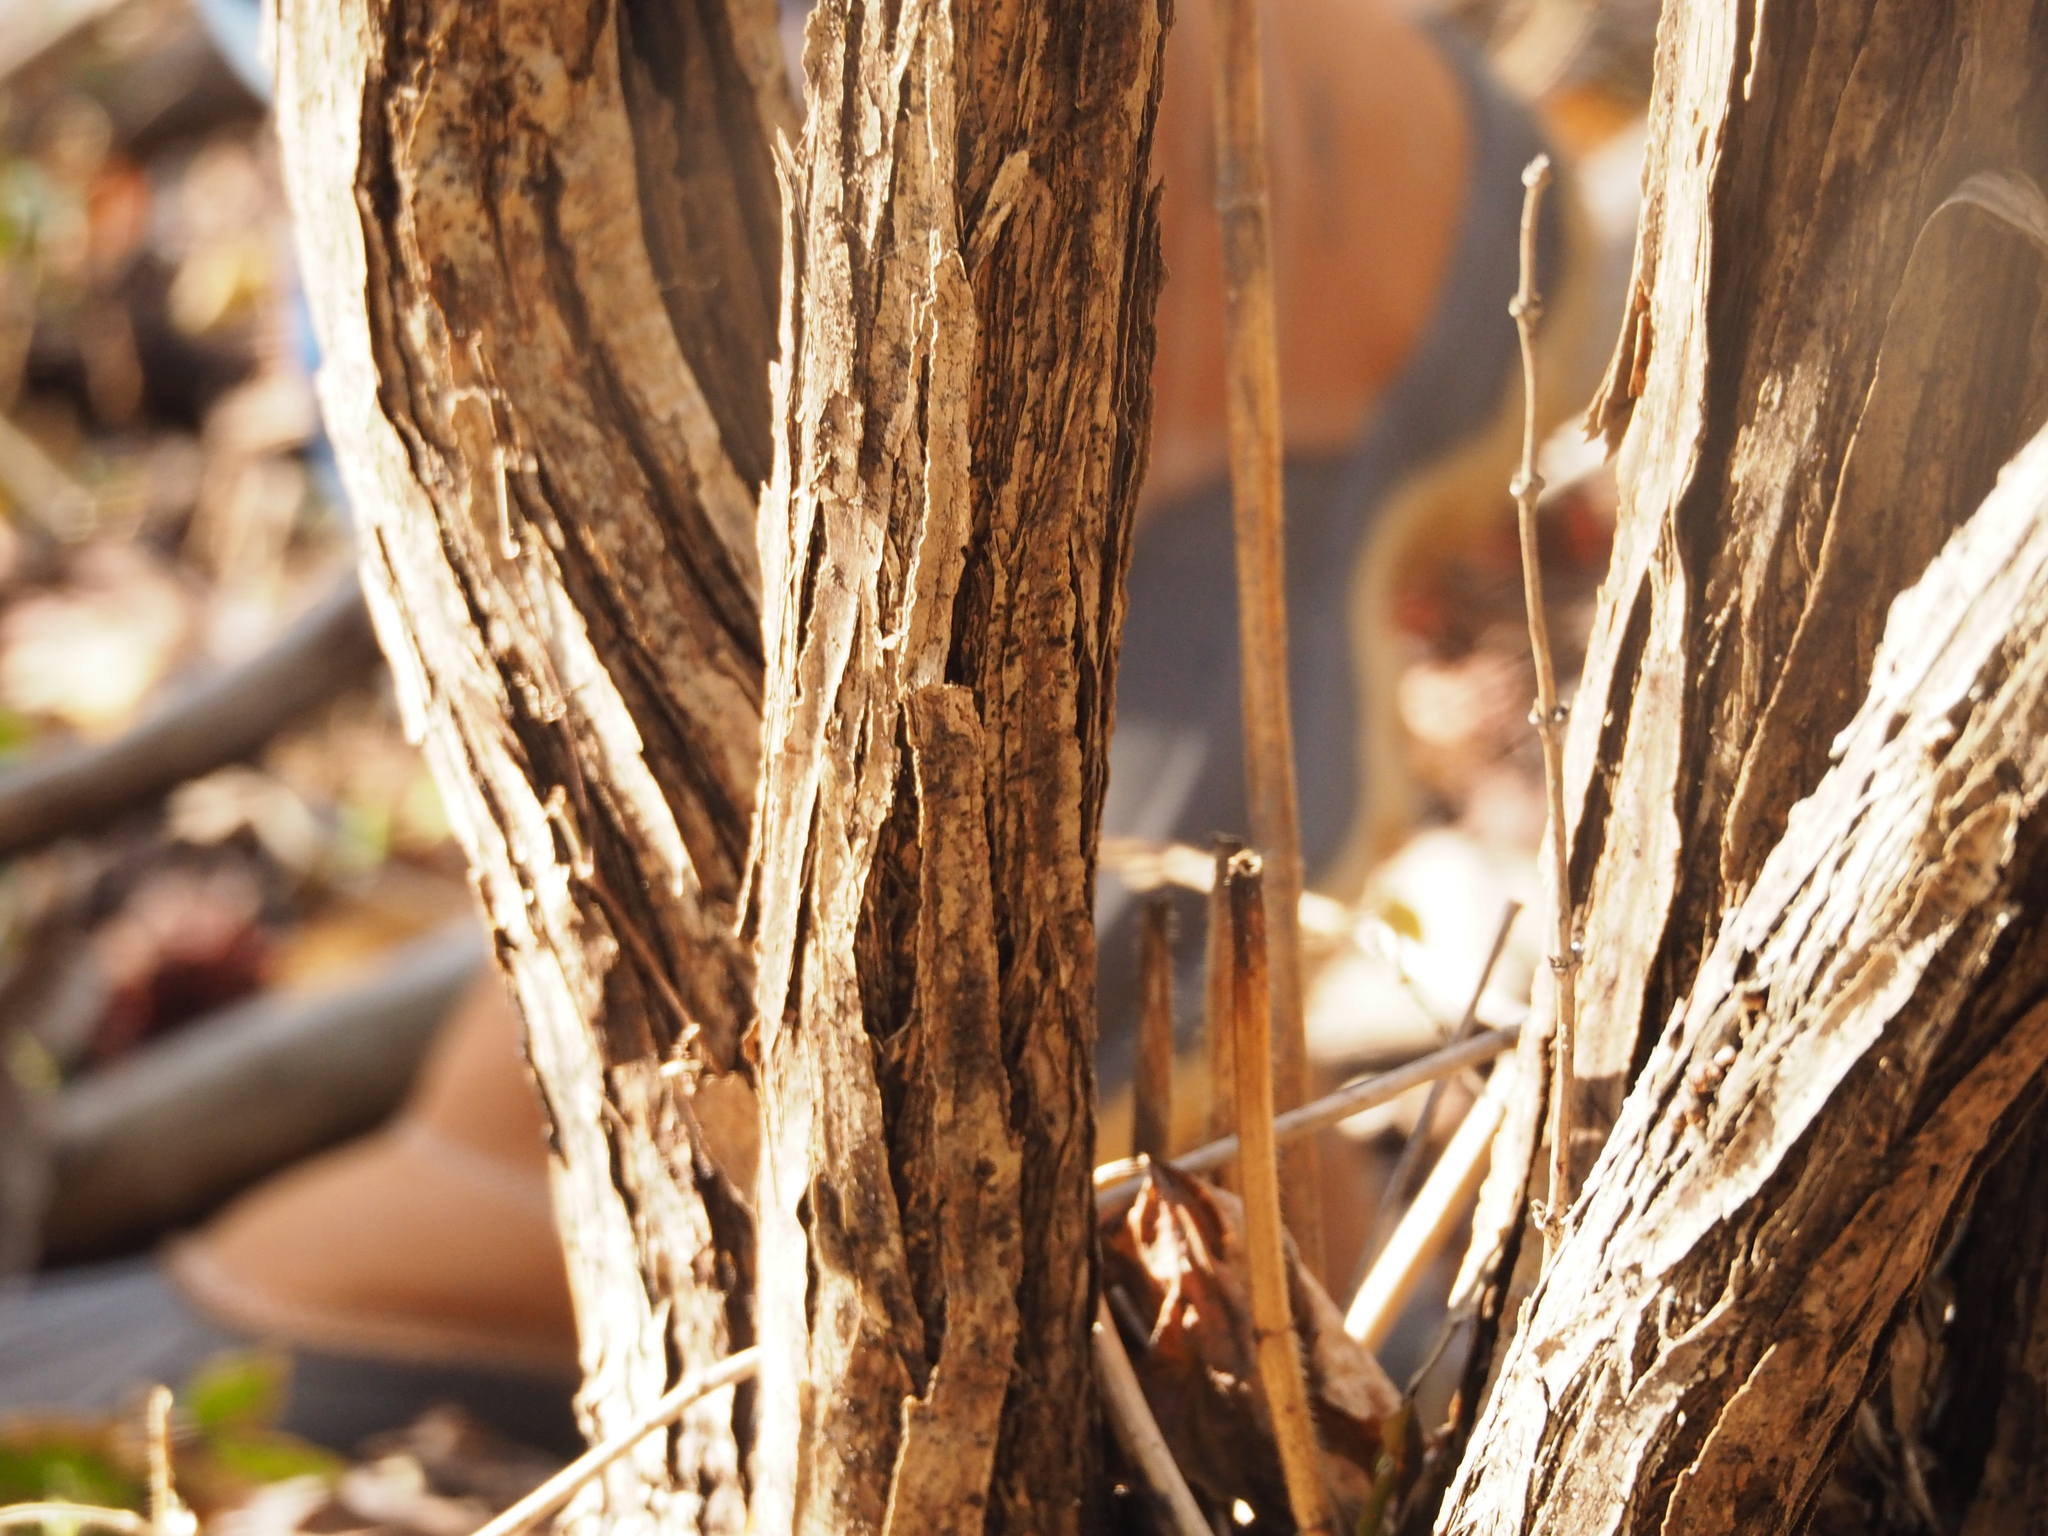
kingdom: Plantae
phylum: Tracheophyta
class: Magnoliopsida
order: Dipsacales
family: Caprifoliaceae
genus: Lonicera
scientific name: Lonicera fragrantissima
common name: Fragrant honeysuckle
